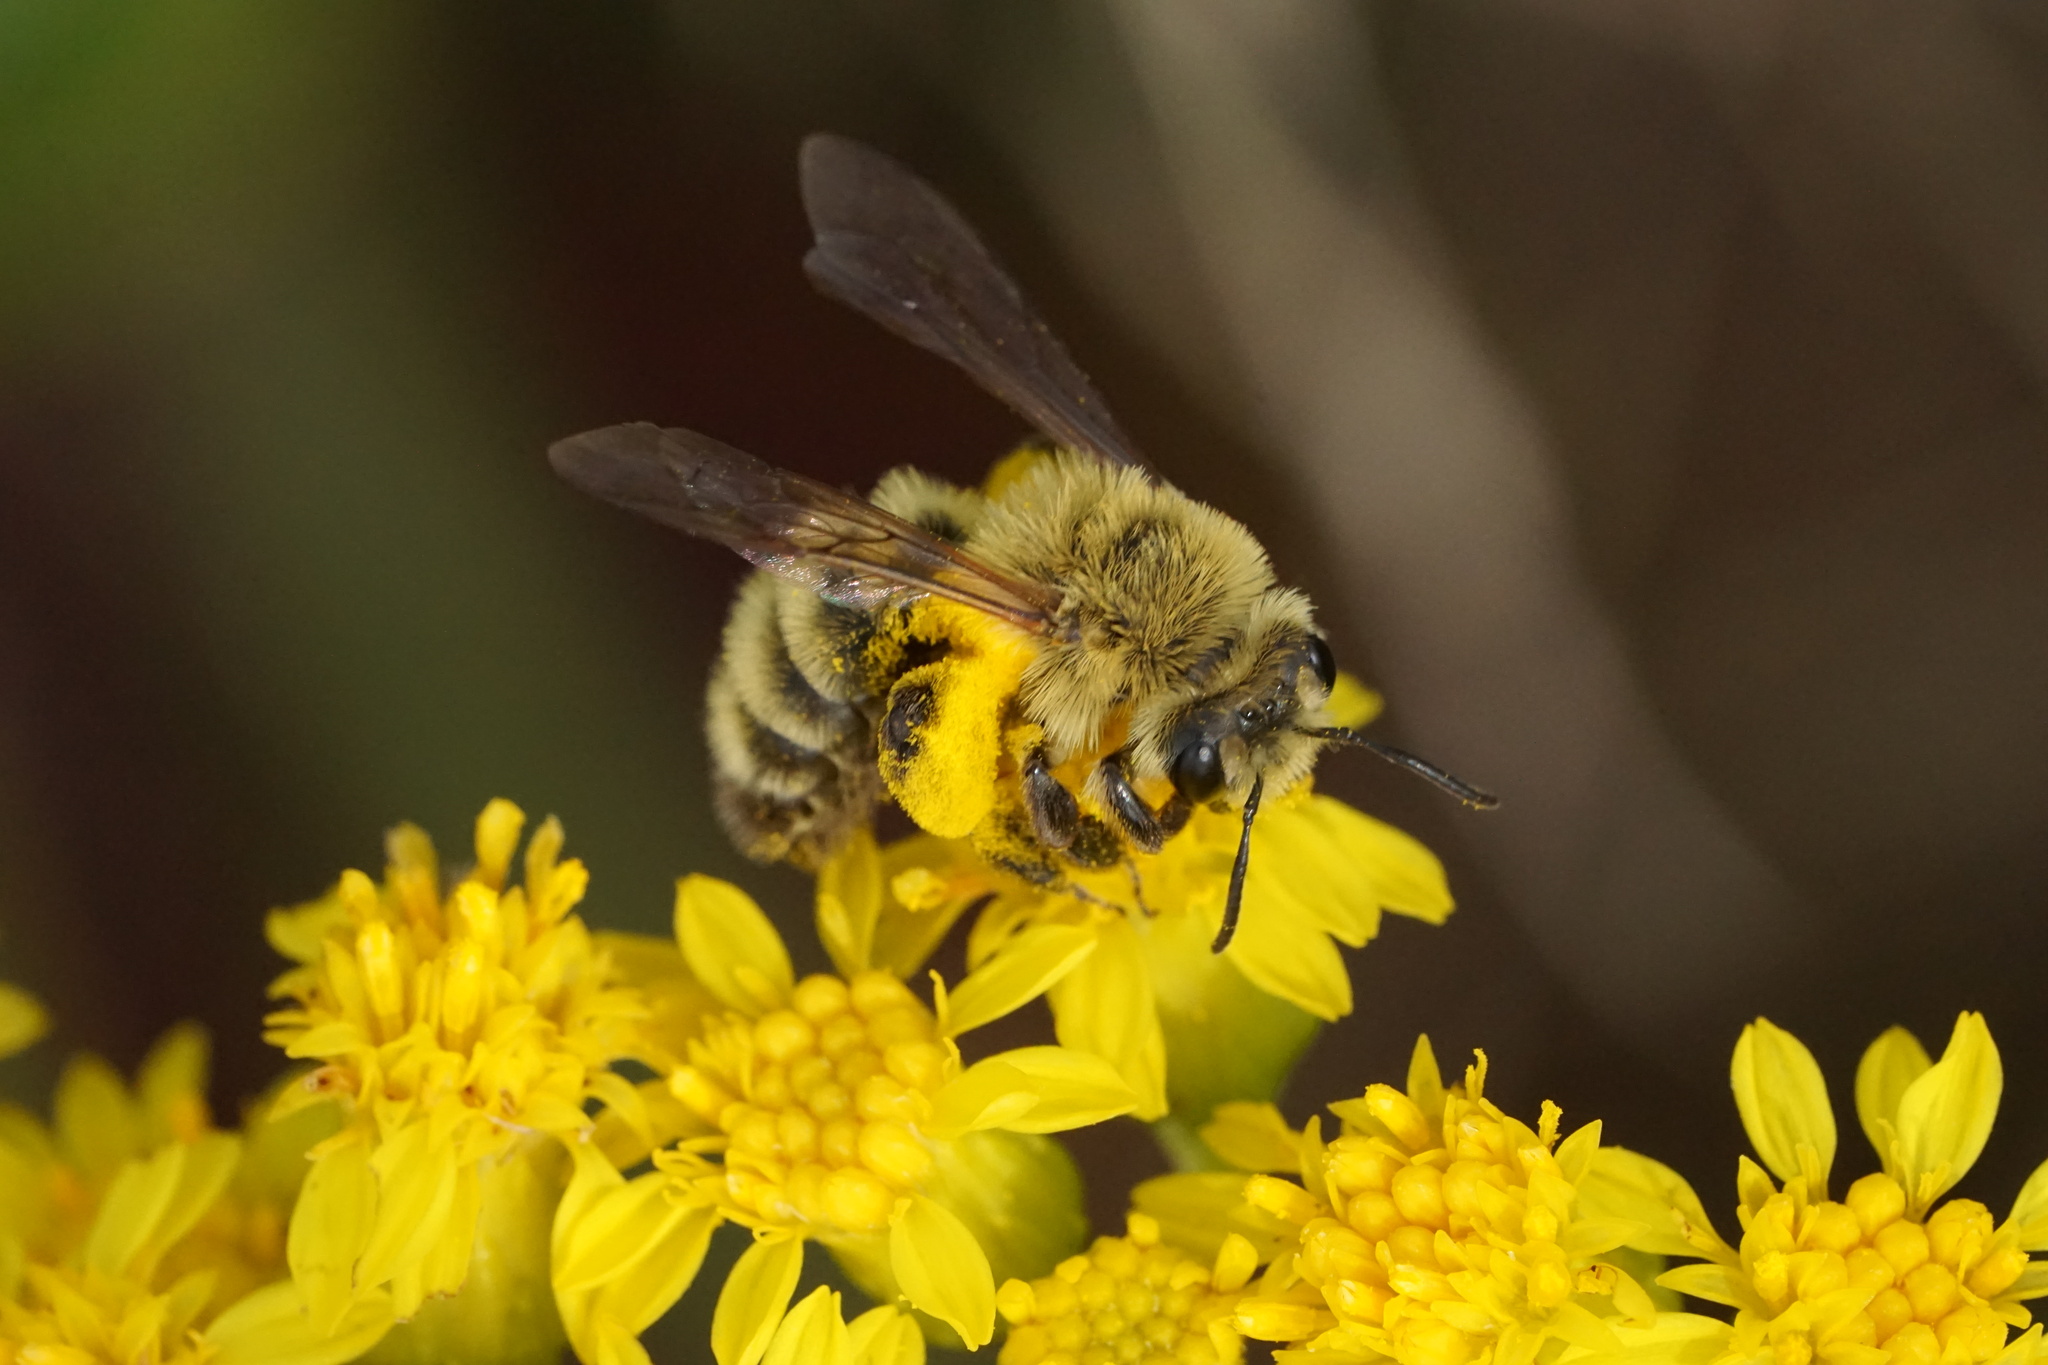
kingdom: Animalia
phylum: Arthropoda
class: Insecta
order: Hymenoptera
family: Andrenidae
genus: Andrena
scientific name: Andrena hirticincta
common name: Hairy-banded mining bee
